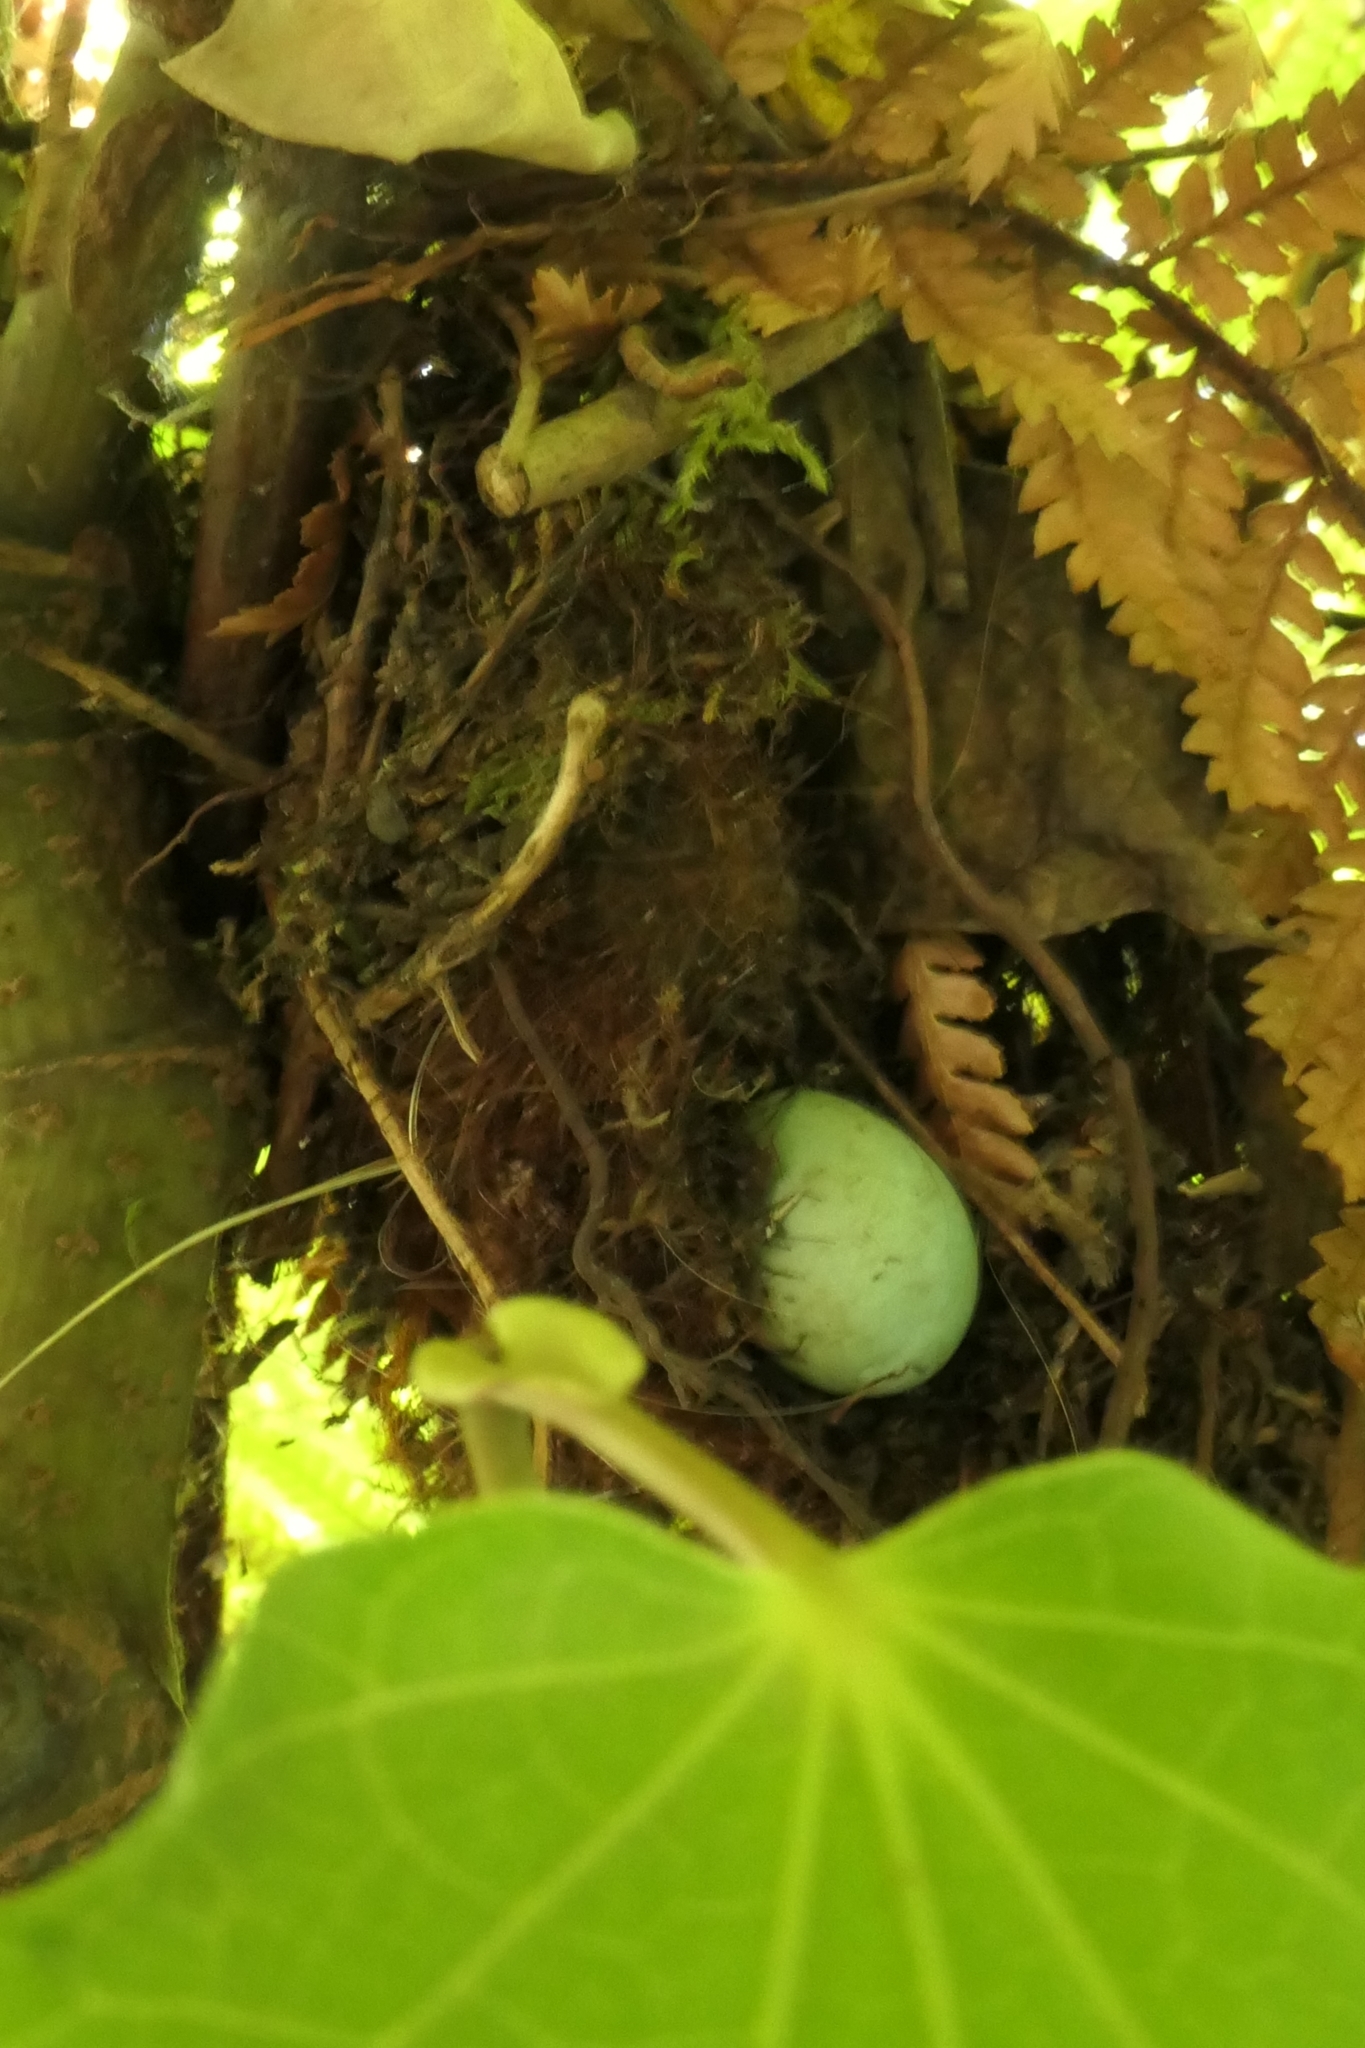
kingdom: Animalia
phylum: Chordata
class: Aves
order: Passeriformes
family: Prunellidae
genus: Prunella
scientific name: Prunella modularis
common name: Dunnock
